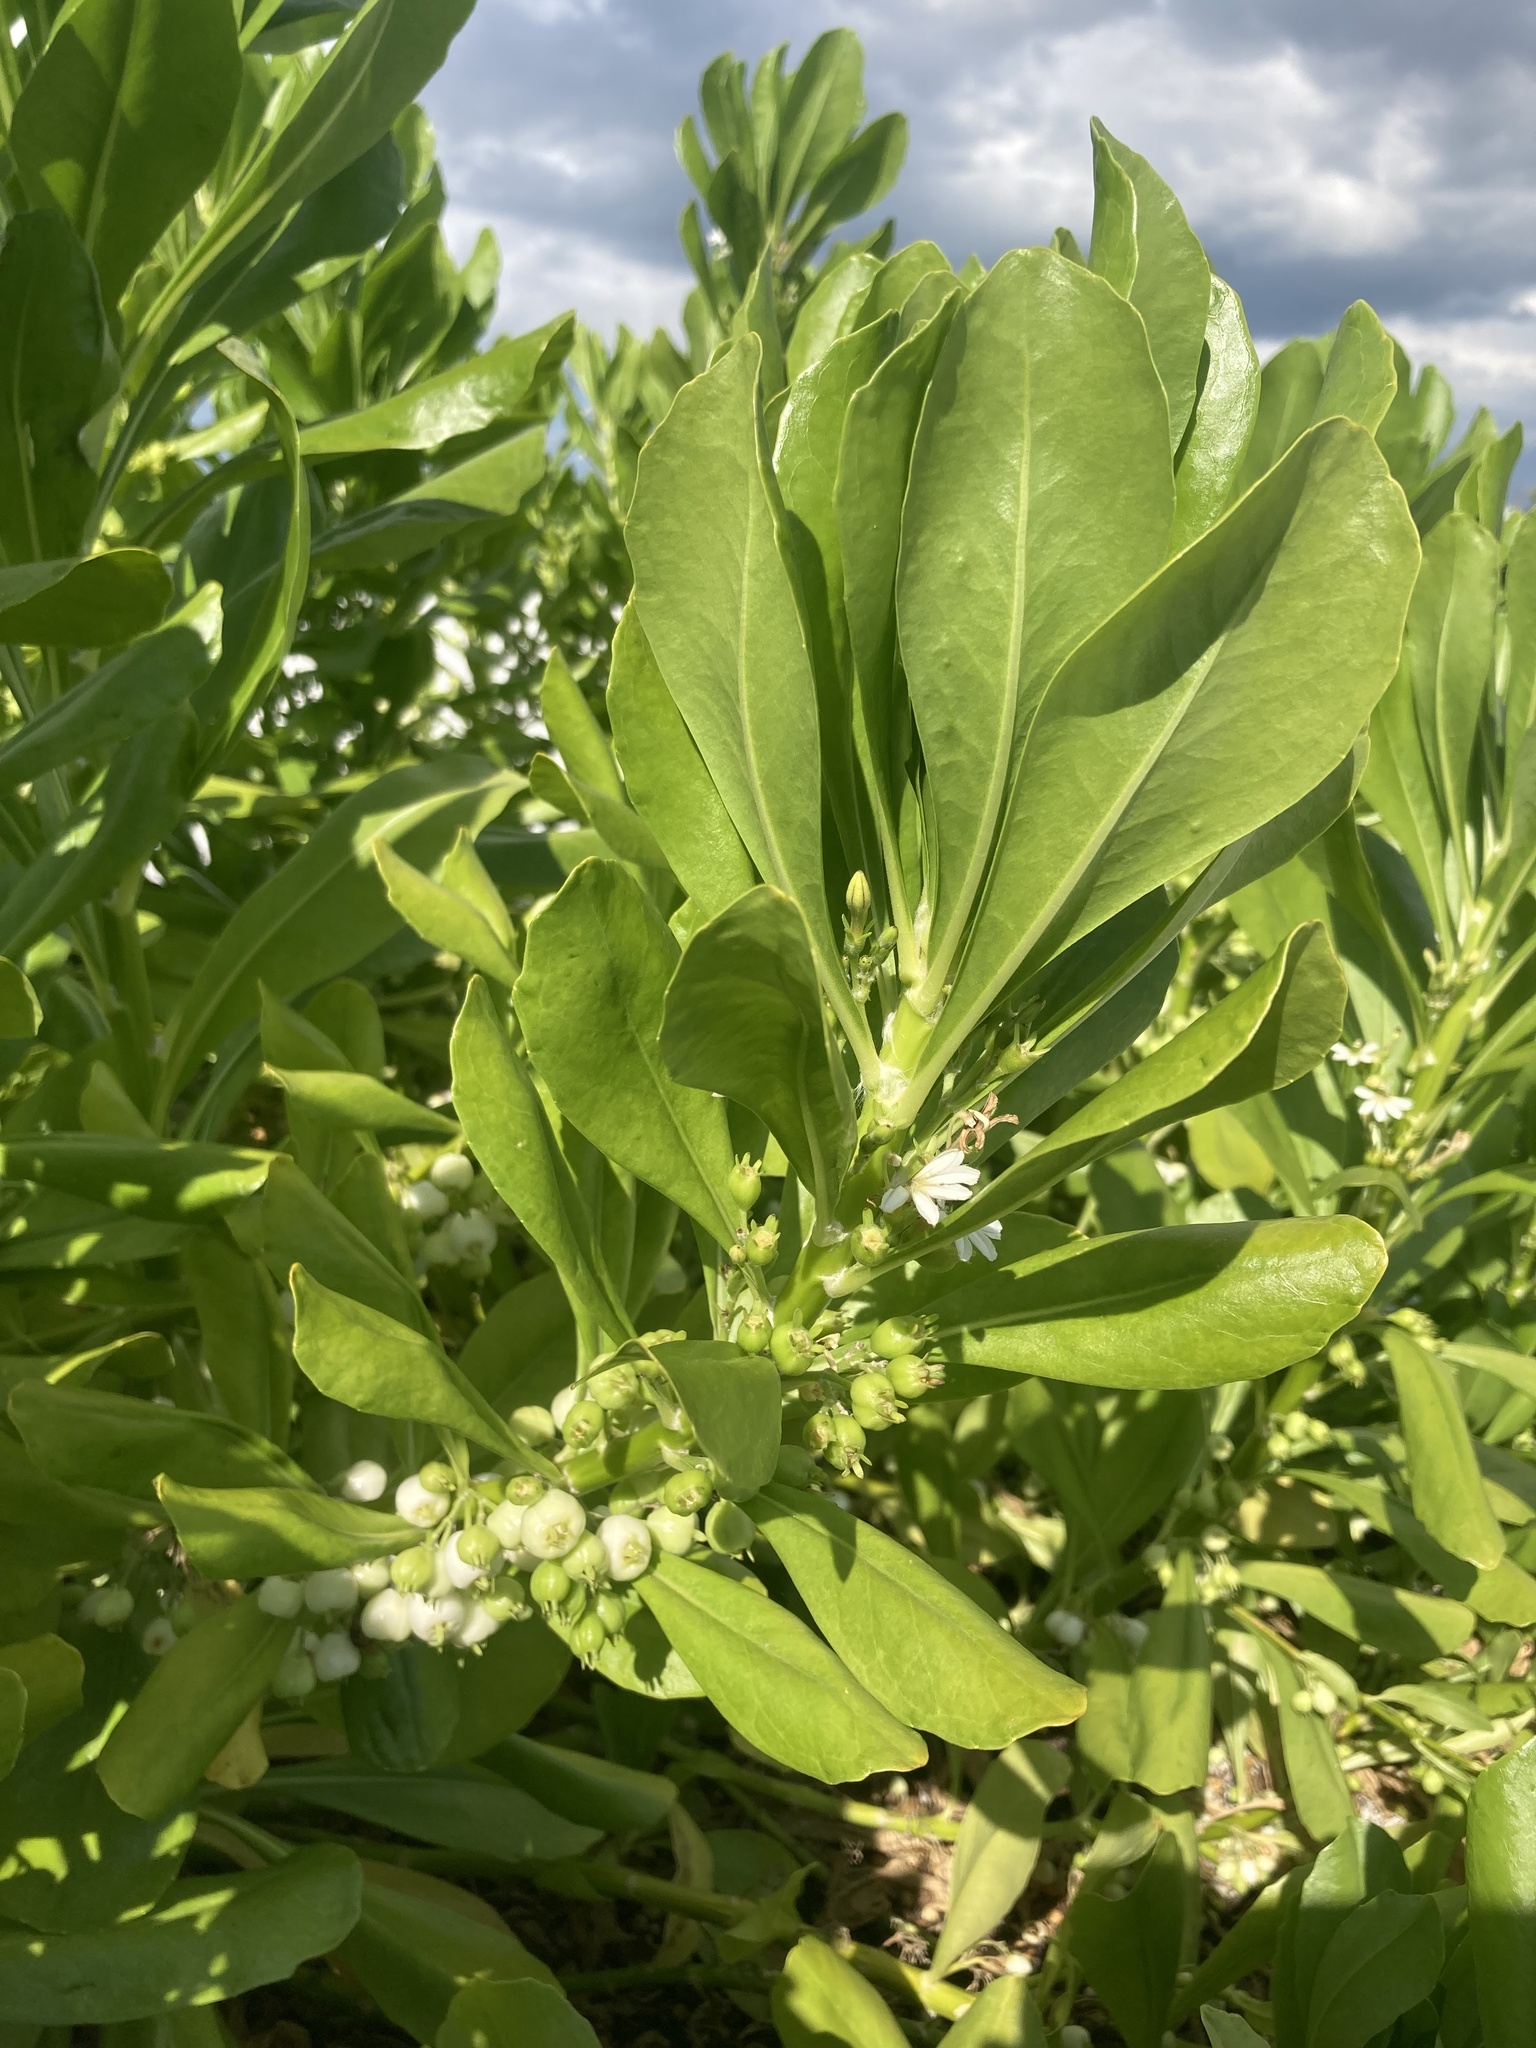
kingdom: Plantae
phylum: Tracheophyta
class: Magnoliopsida
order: Asterales
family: Goodeniaceae
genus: Scaevola
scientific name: Scaevola taccada
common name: Sea lettucetree
